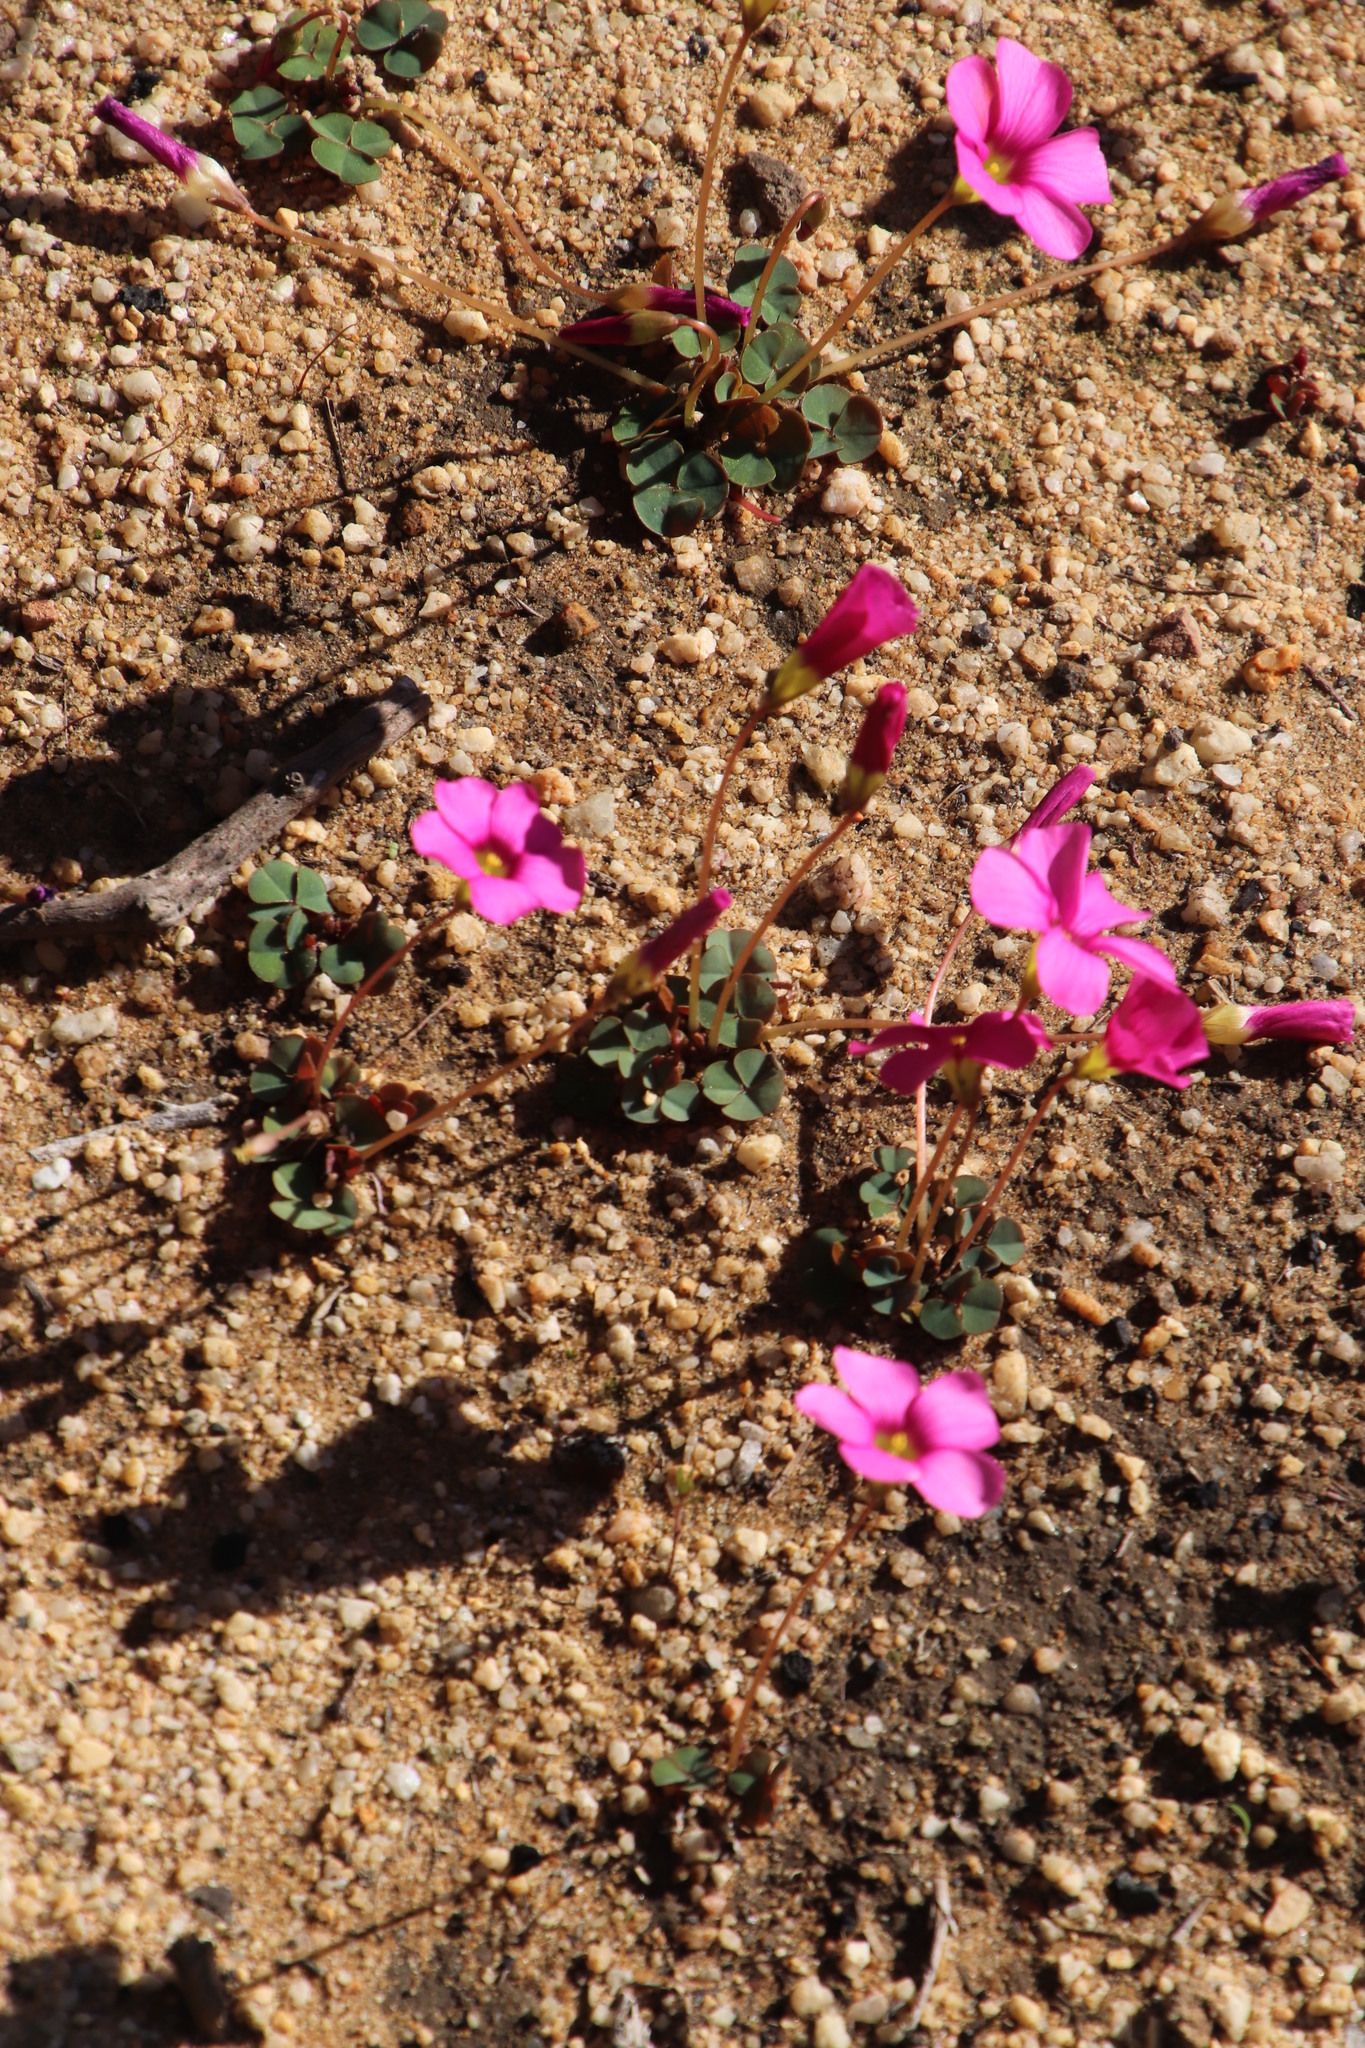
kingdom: Plantae
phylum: Tracheophyta
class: Magnoliopsida
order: Oxalidales
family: Oxalidaceae
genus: Oxalis
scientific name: Oxalis commutata
